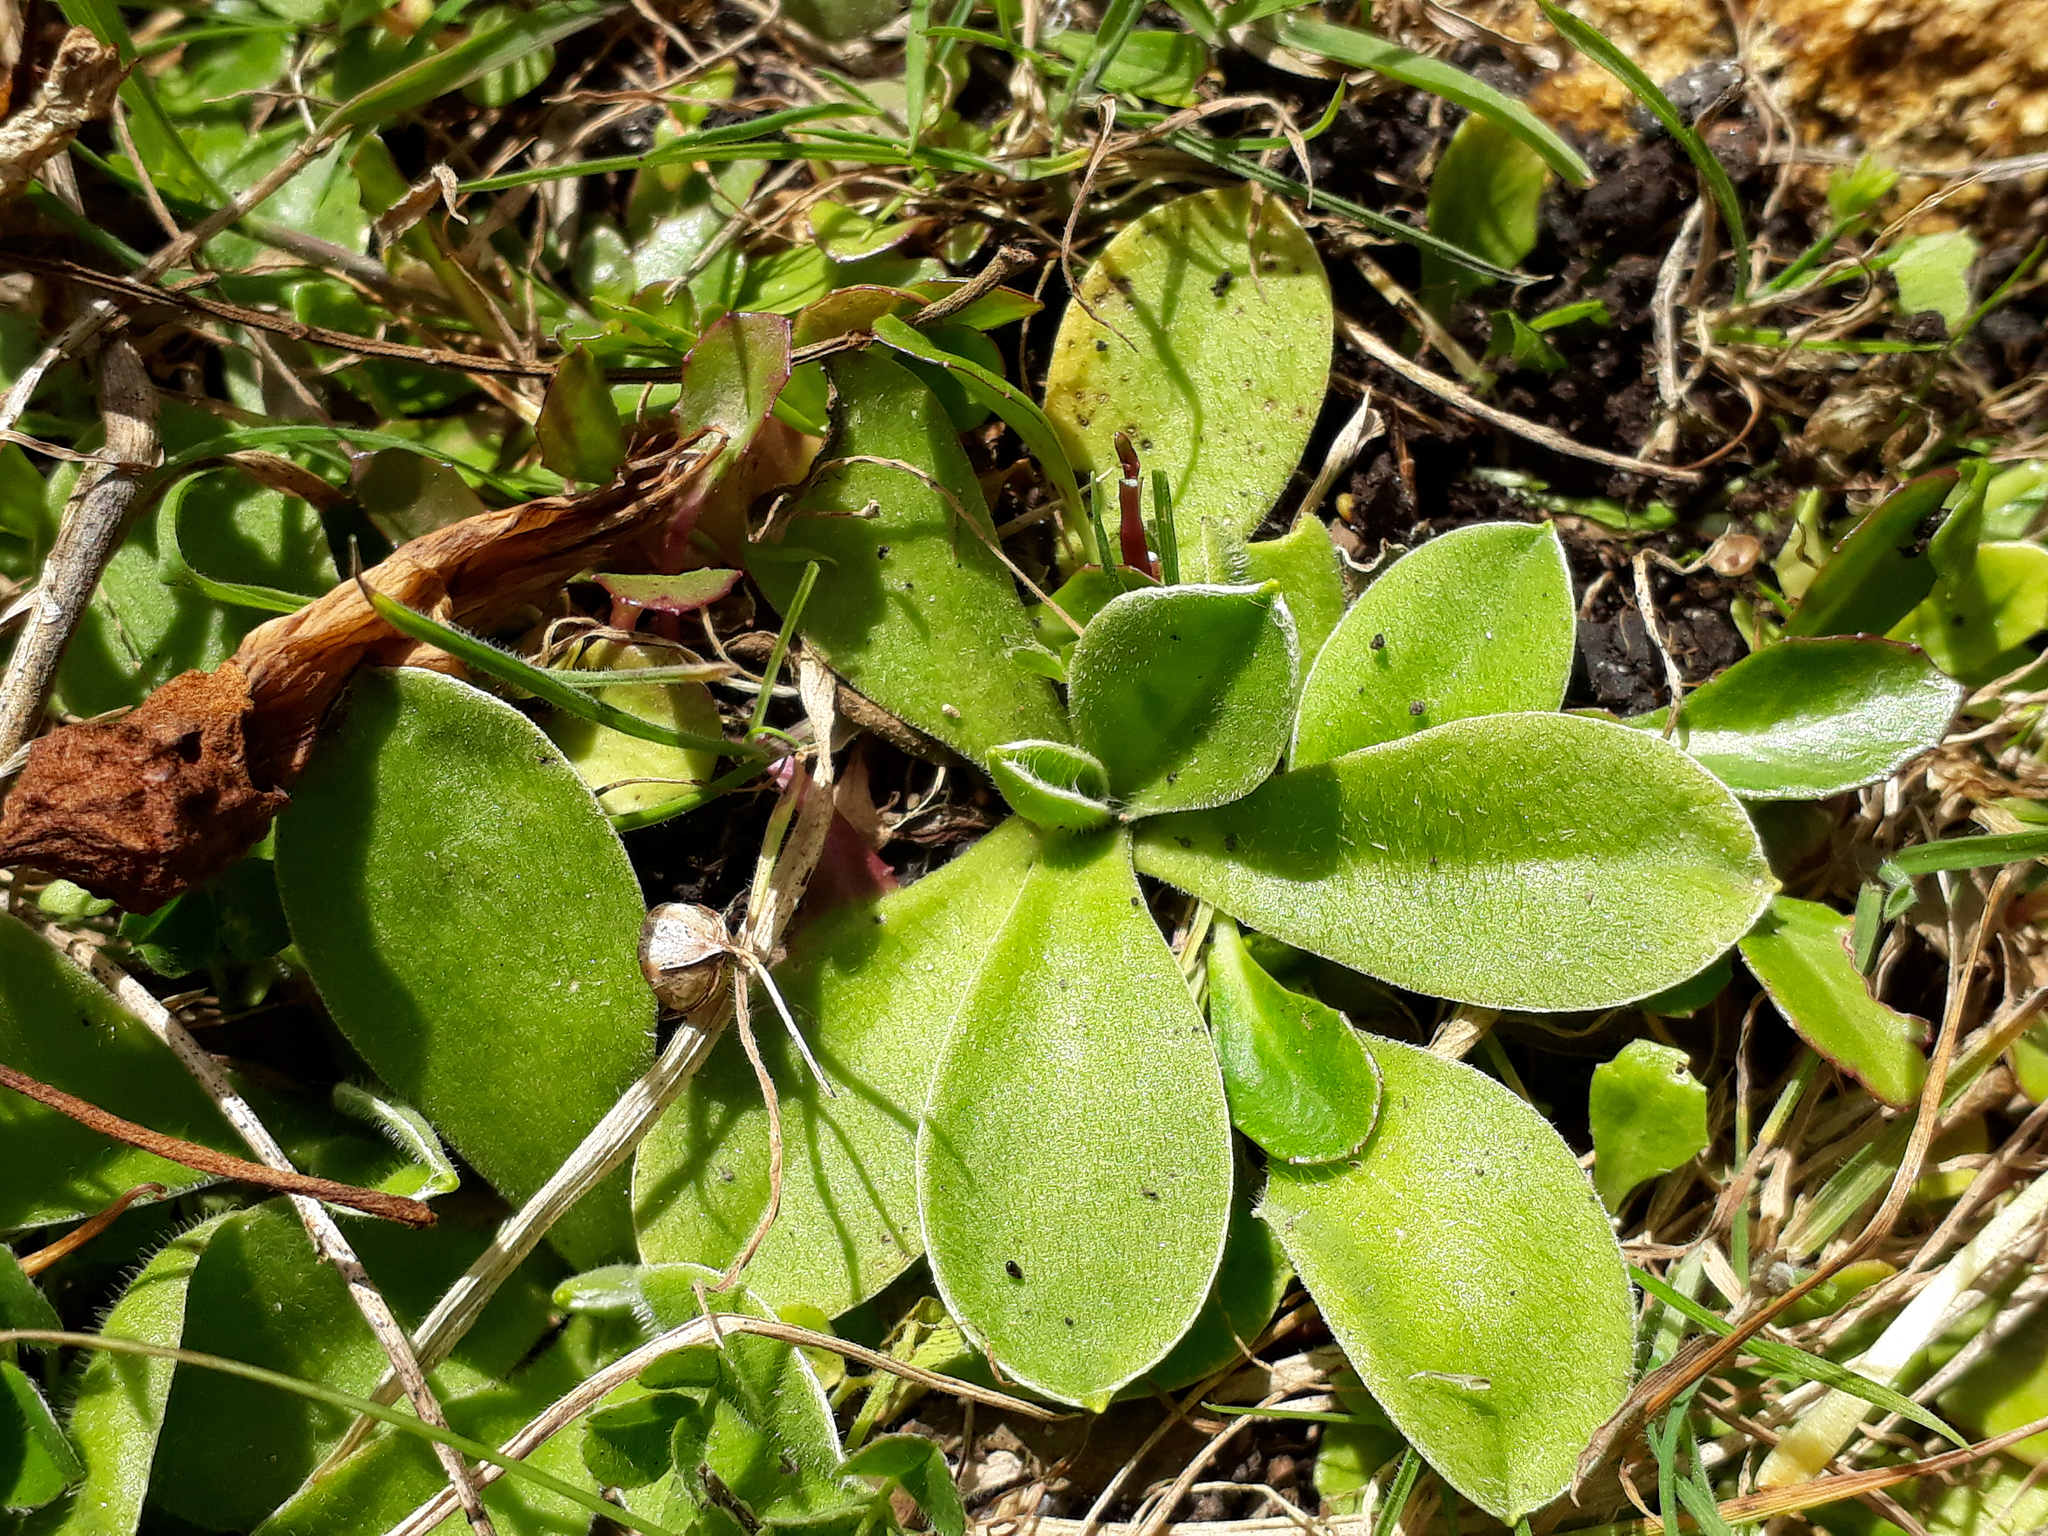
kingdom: Plantae
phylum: Tracheophyta
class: Magnoliopsida
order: Asterales
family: Asteraceae
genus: Craspedia
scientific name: Craspedia minor
